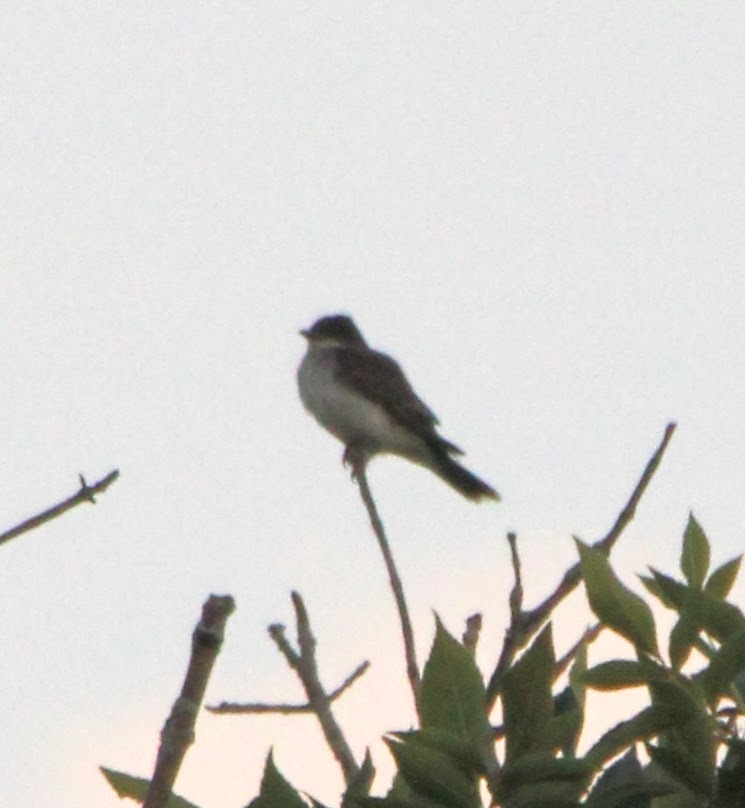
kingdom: Animalia
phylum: Chordata
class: Aves
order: Passeriformes
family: Tyrannidae
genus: Tyrannus
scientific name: Tyrannus tyrannus
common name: Eastern kingbird
